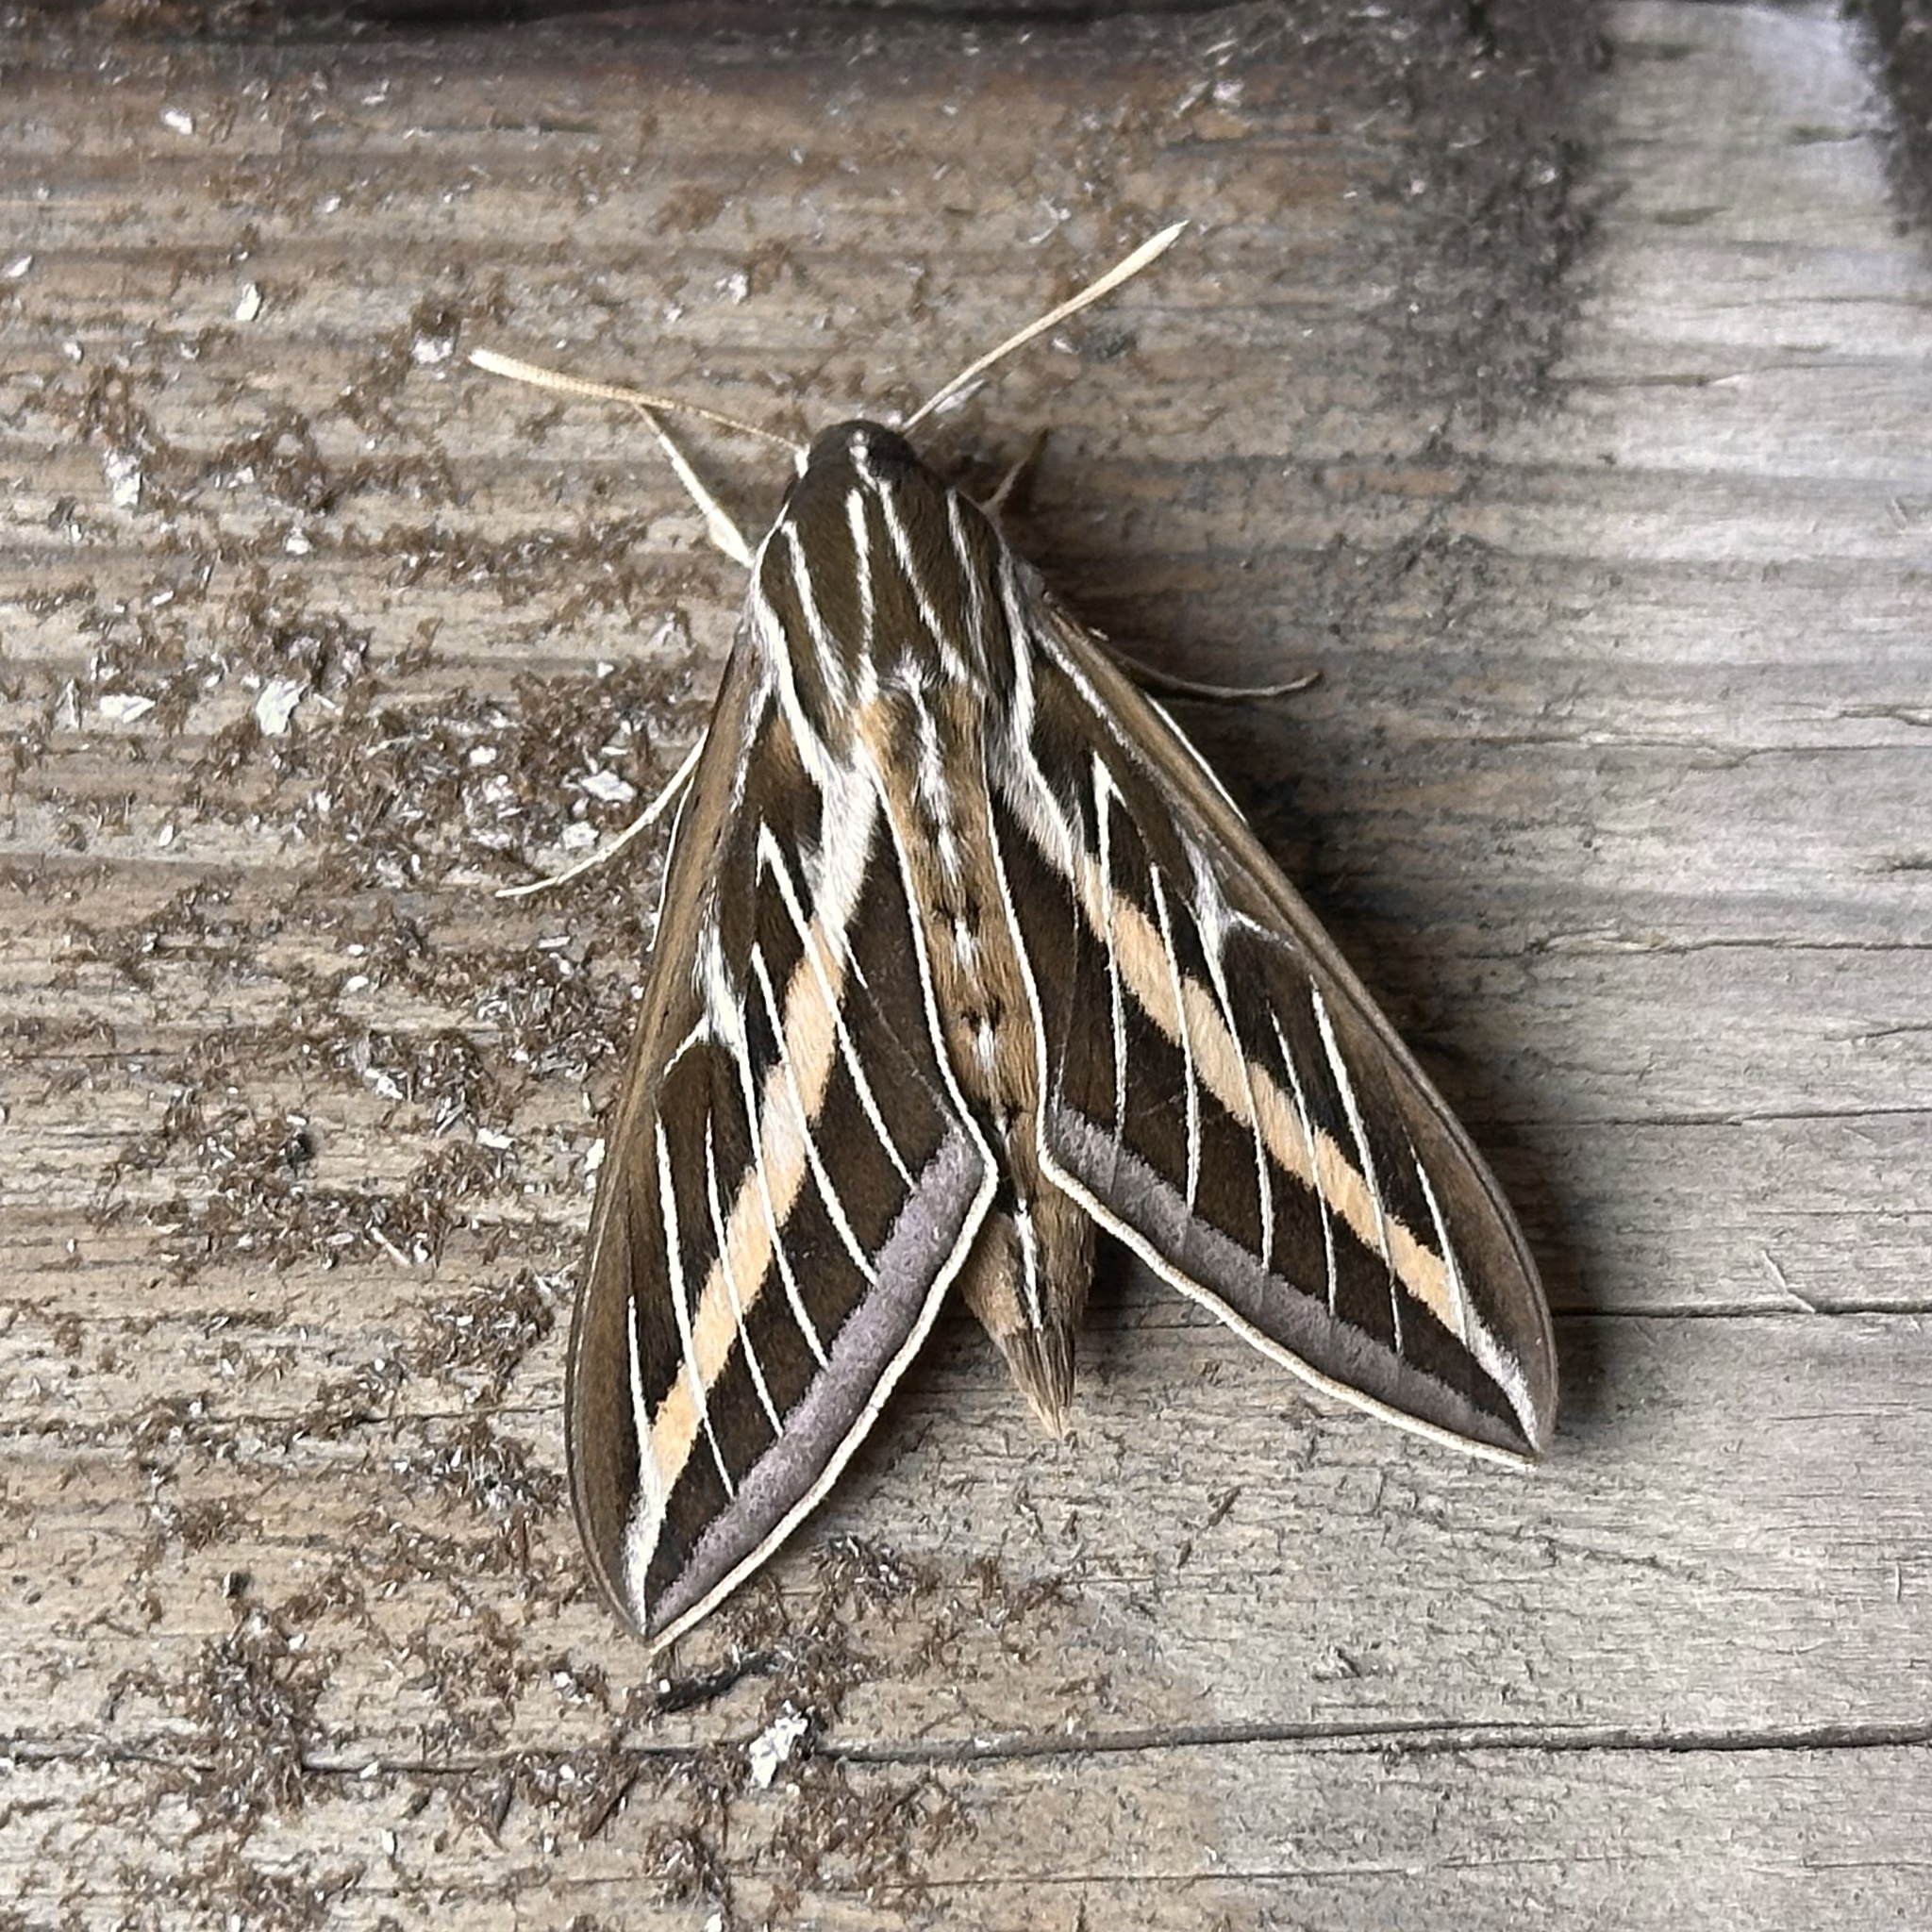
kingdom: Animalia
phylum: Arthropoda
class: Insecta
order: Lepidoptera
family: Sphingidae
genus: Hyles
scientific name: Hyles lineata
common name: White-lined sphinx
